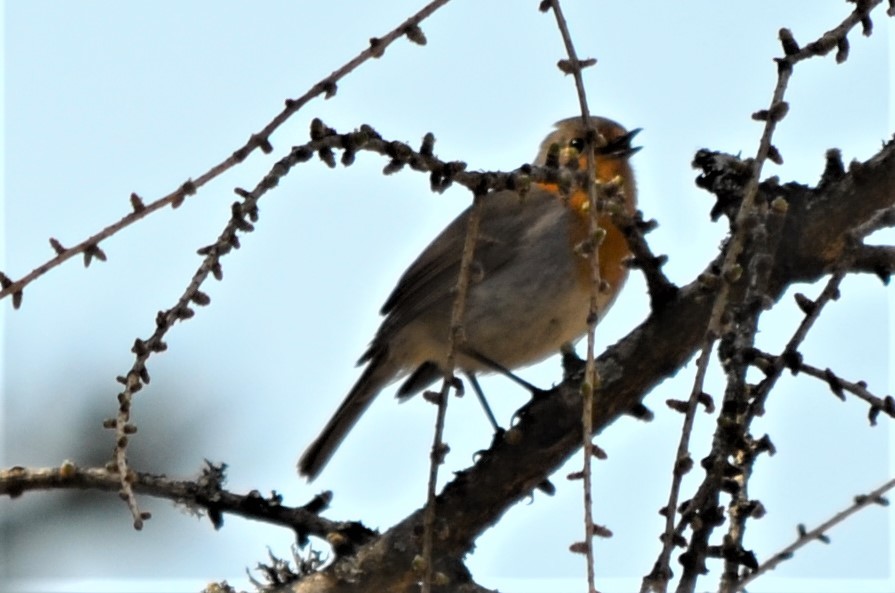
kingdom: Animalia
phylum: Chordata
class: Aves
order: Passeriformes
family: Muscicapidae
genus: Erithacus
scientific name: Erithacus rubecula
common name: European robin
